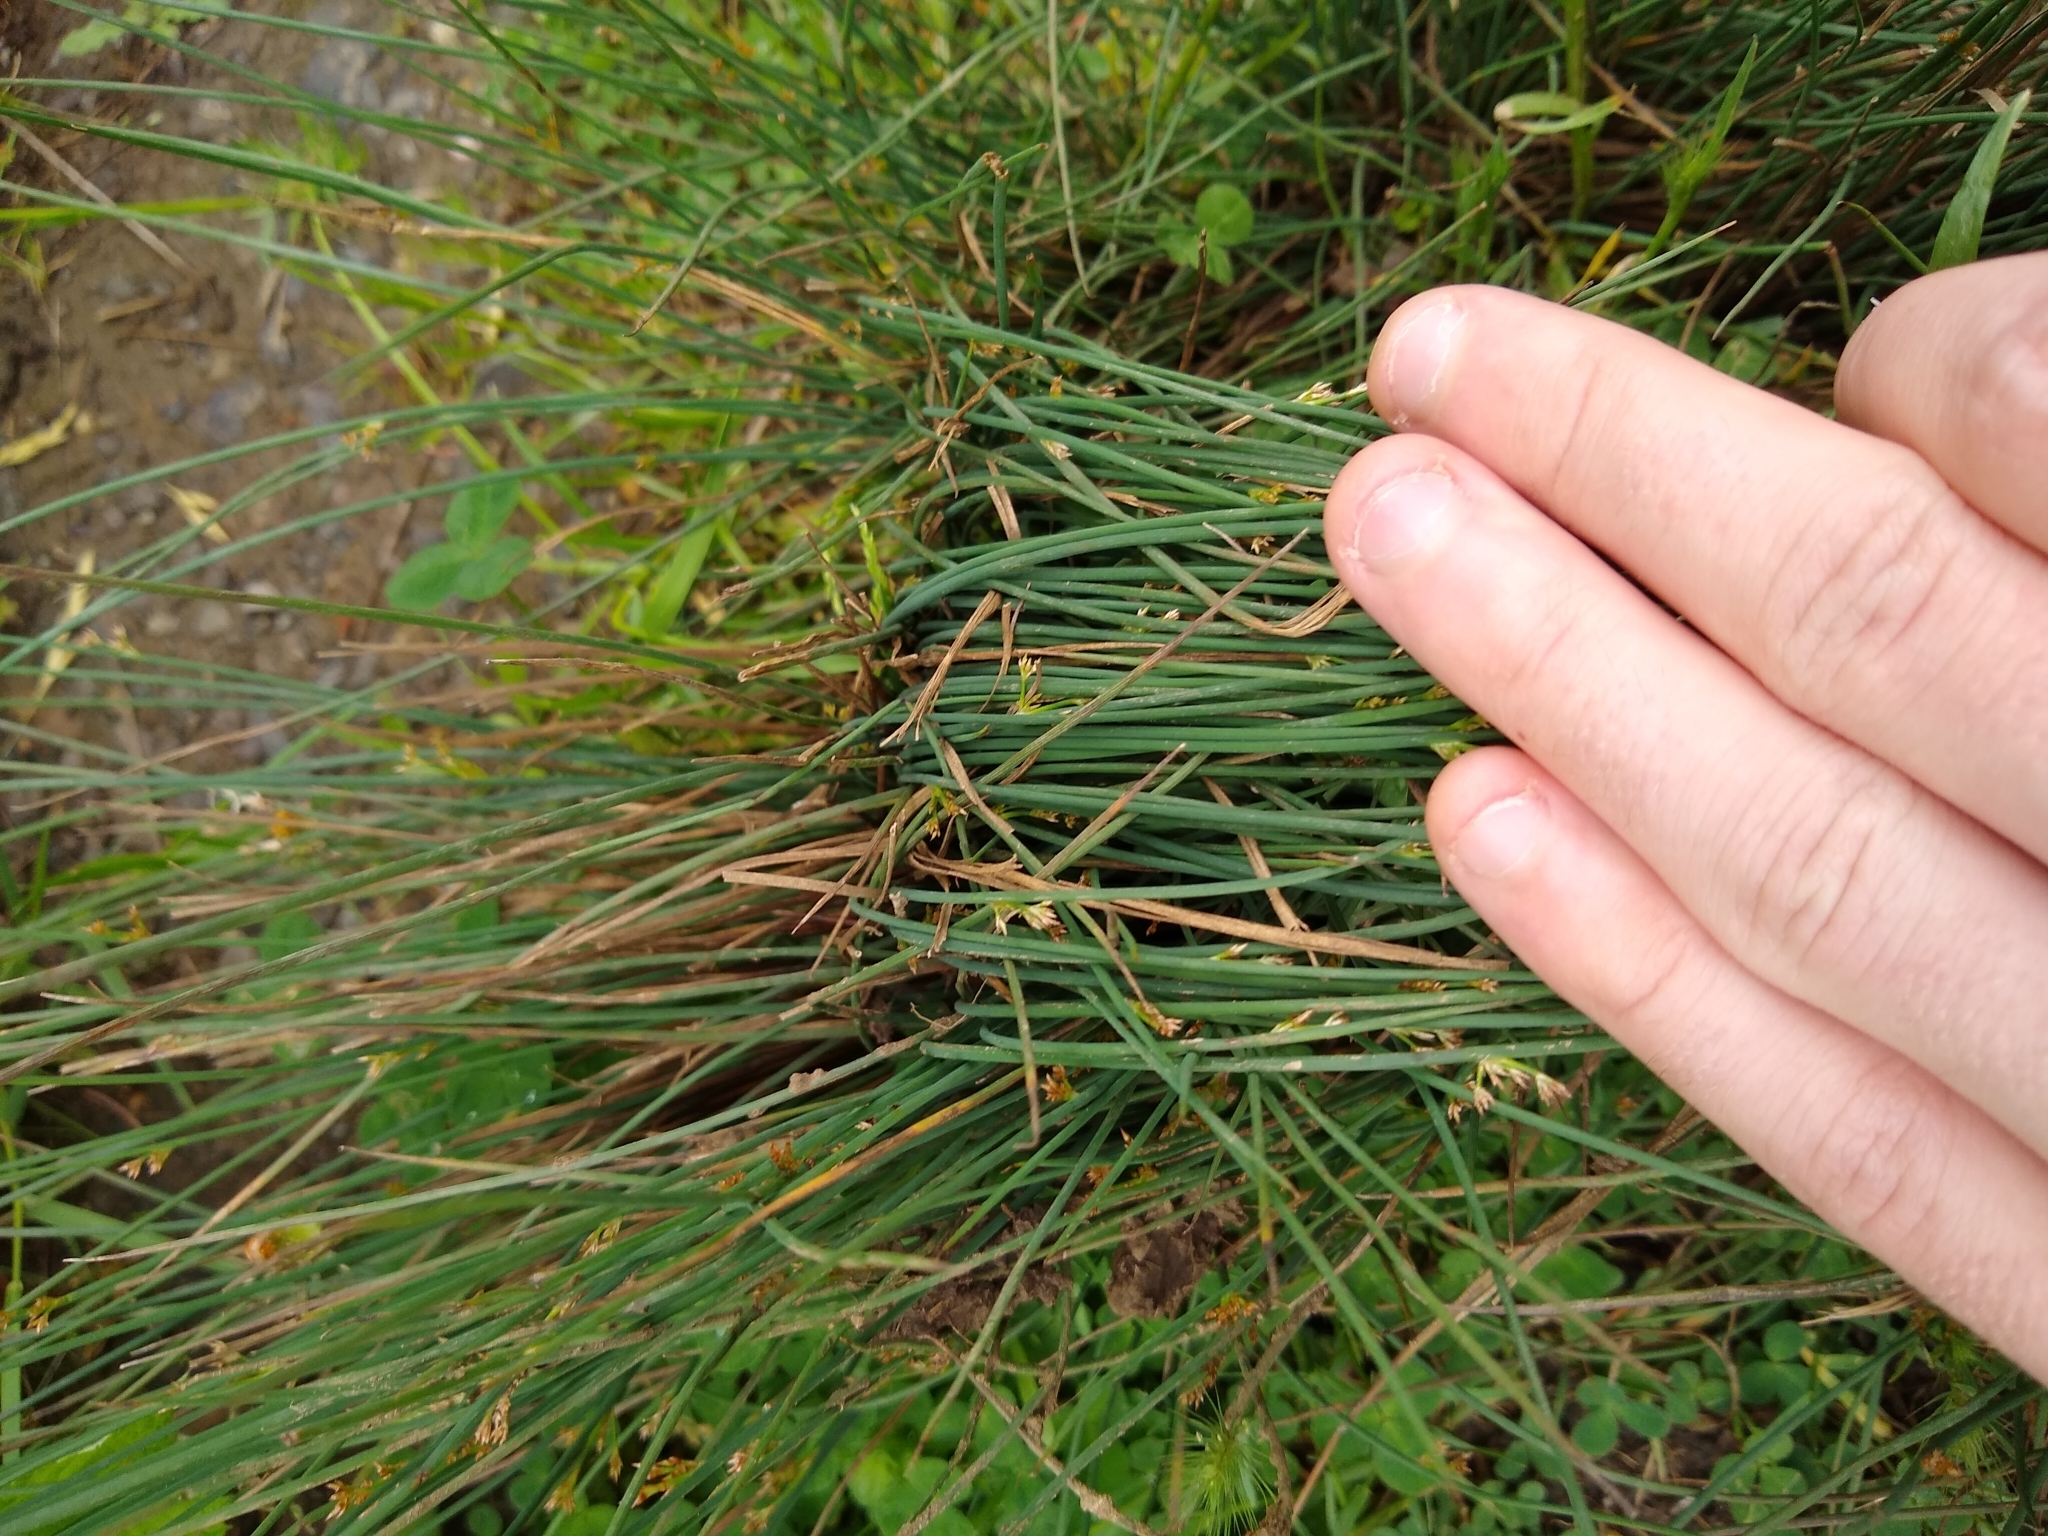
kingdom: Plantae
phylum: Tracheophyta
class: Liliopsida
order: Poales
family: Juncaceae
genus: Juncus
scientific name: Juncus
